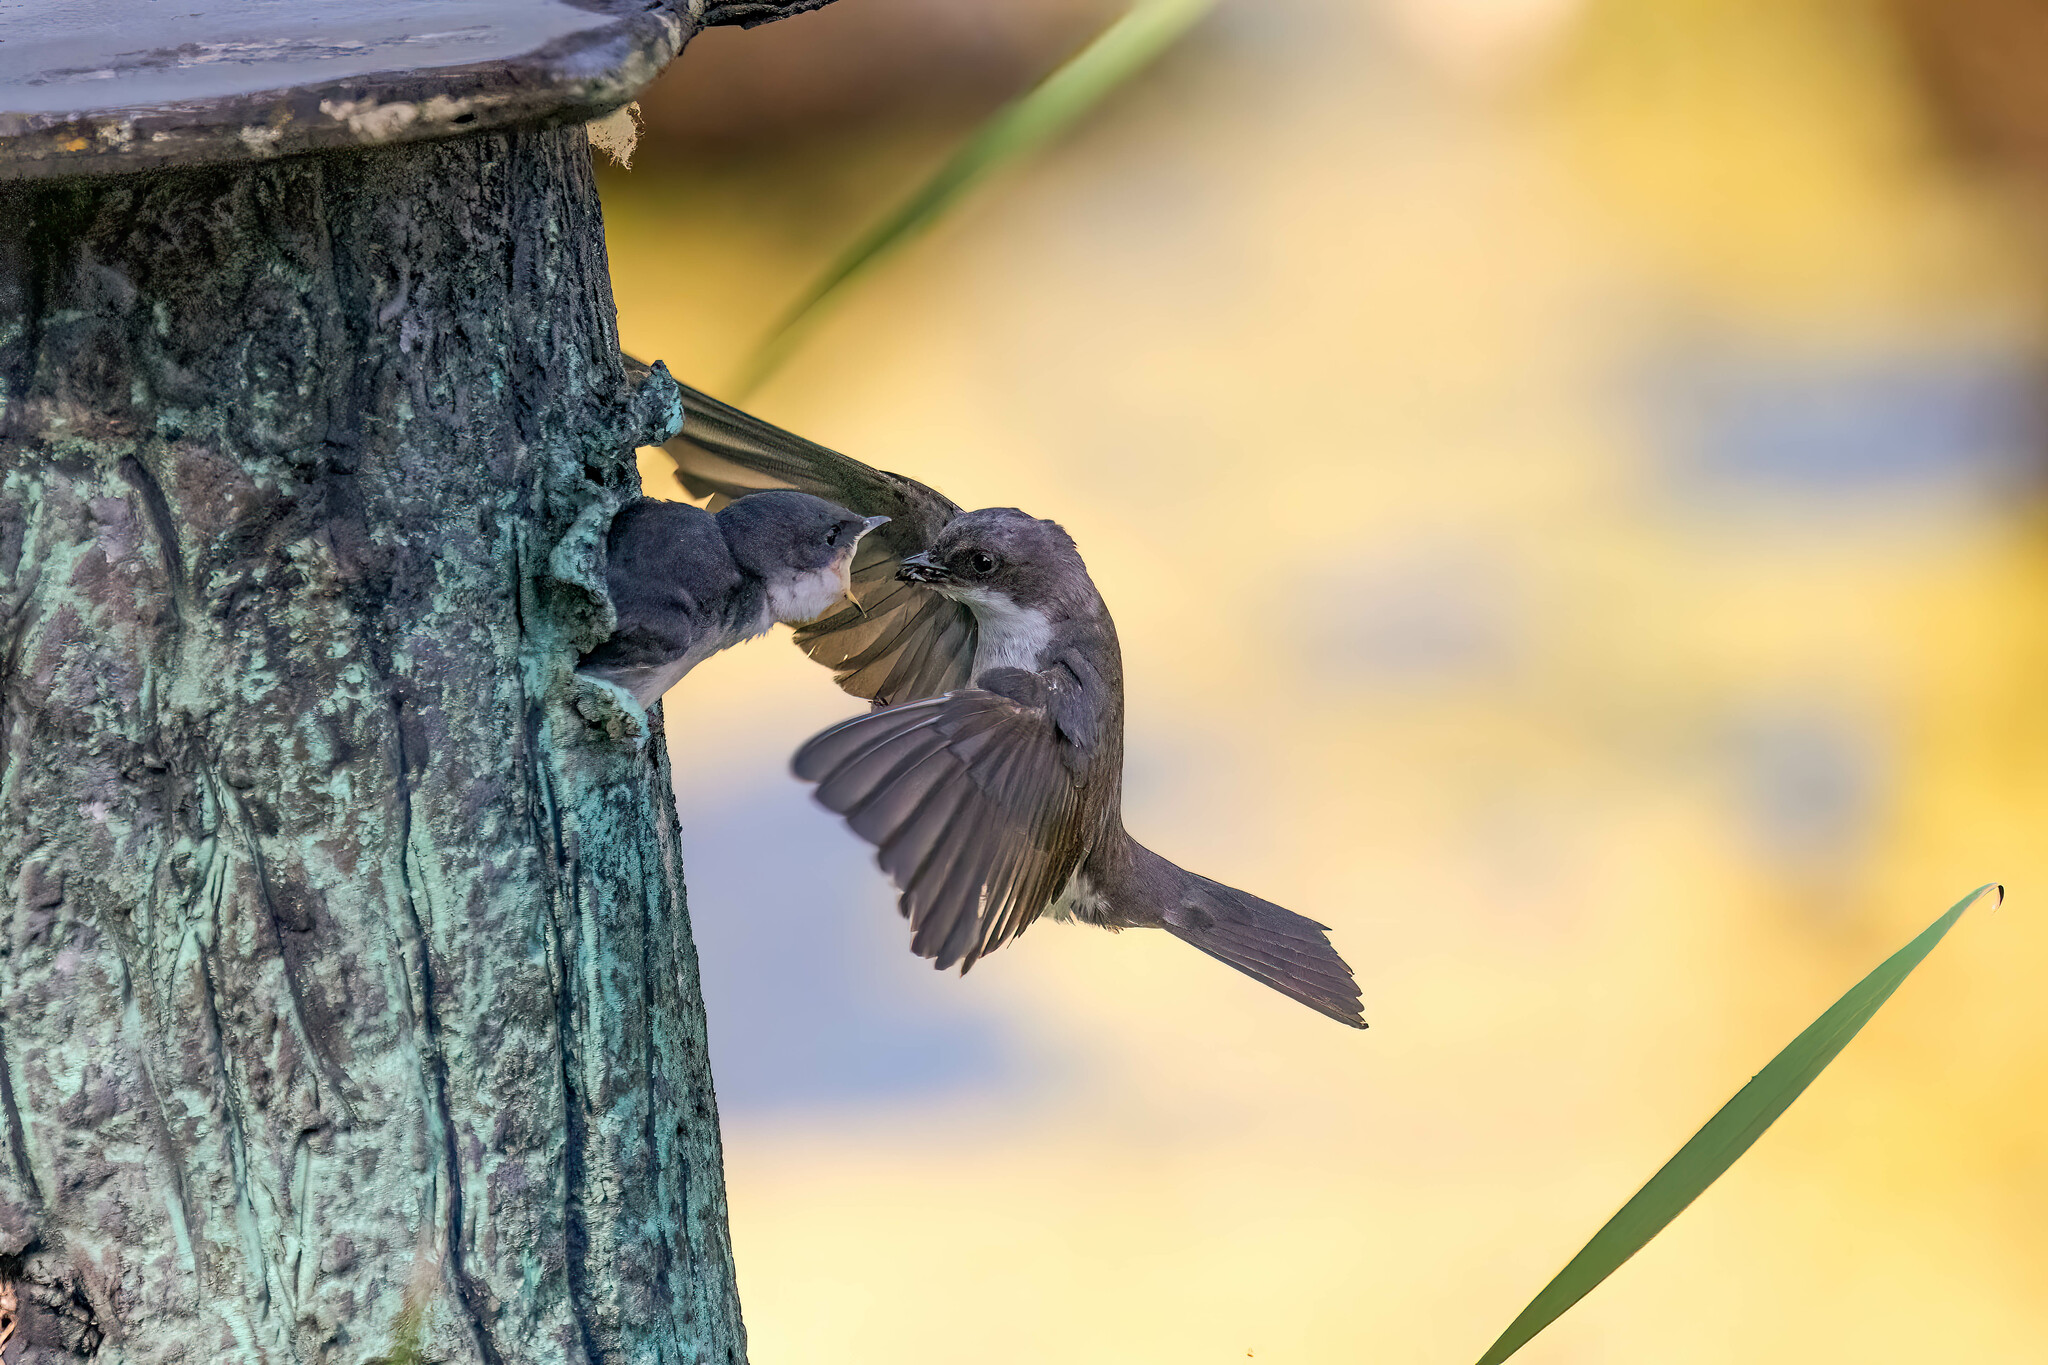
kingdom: Animalia
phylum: Chordata
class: Aves
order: Passeriformes
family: Hirundinidae
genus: Tachycineta
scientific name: Tachycineta bicolor
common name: Tree swallow
